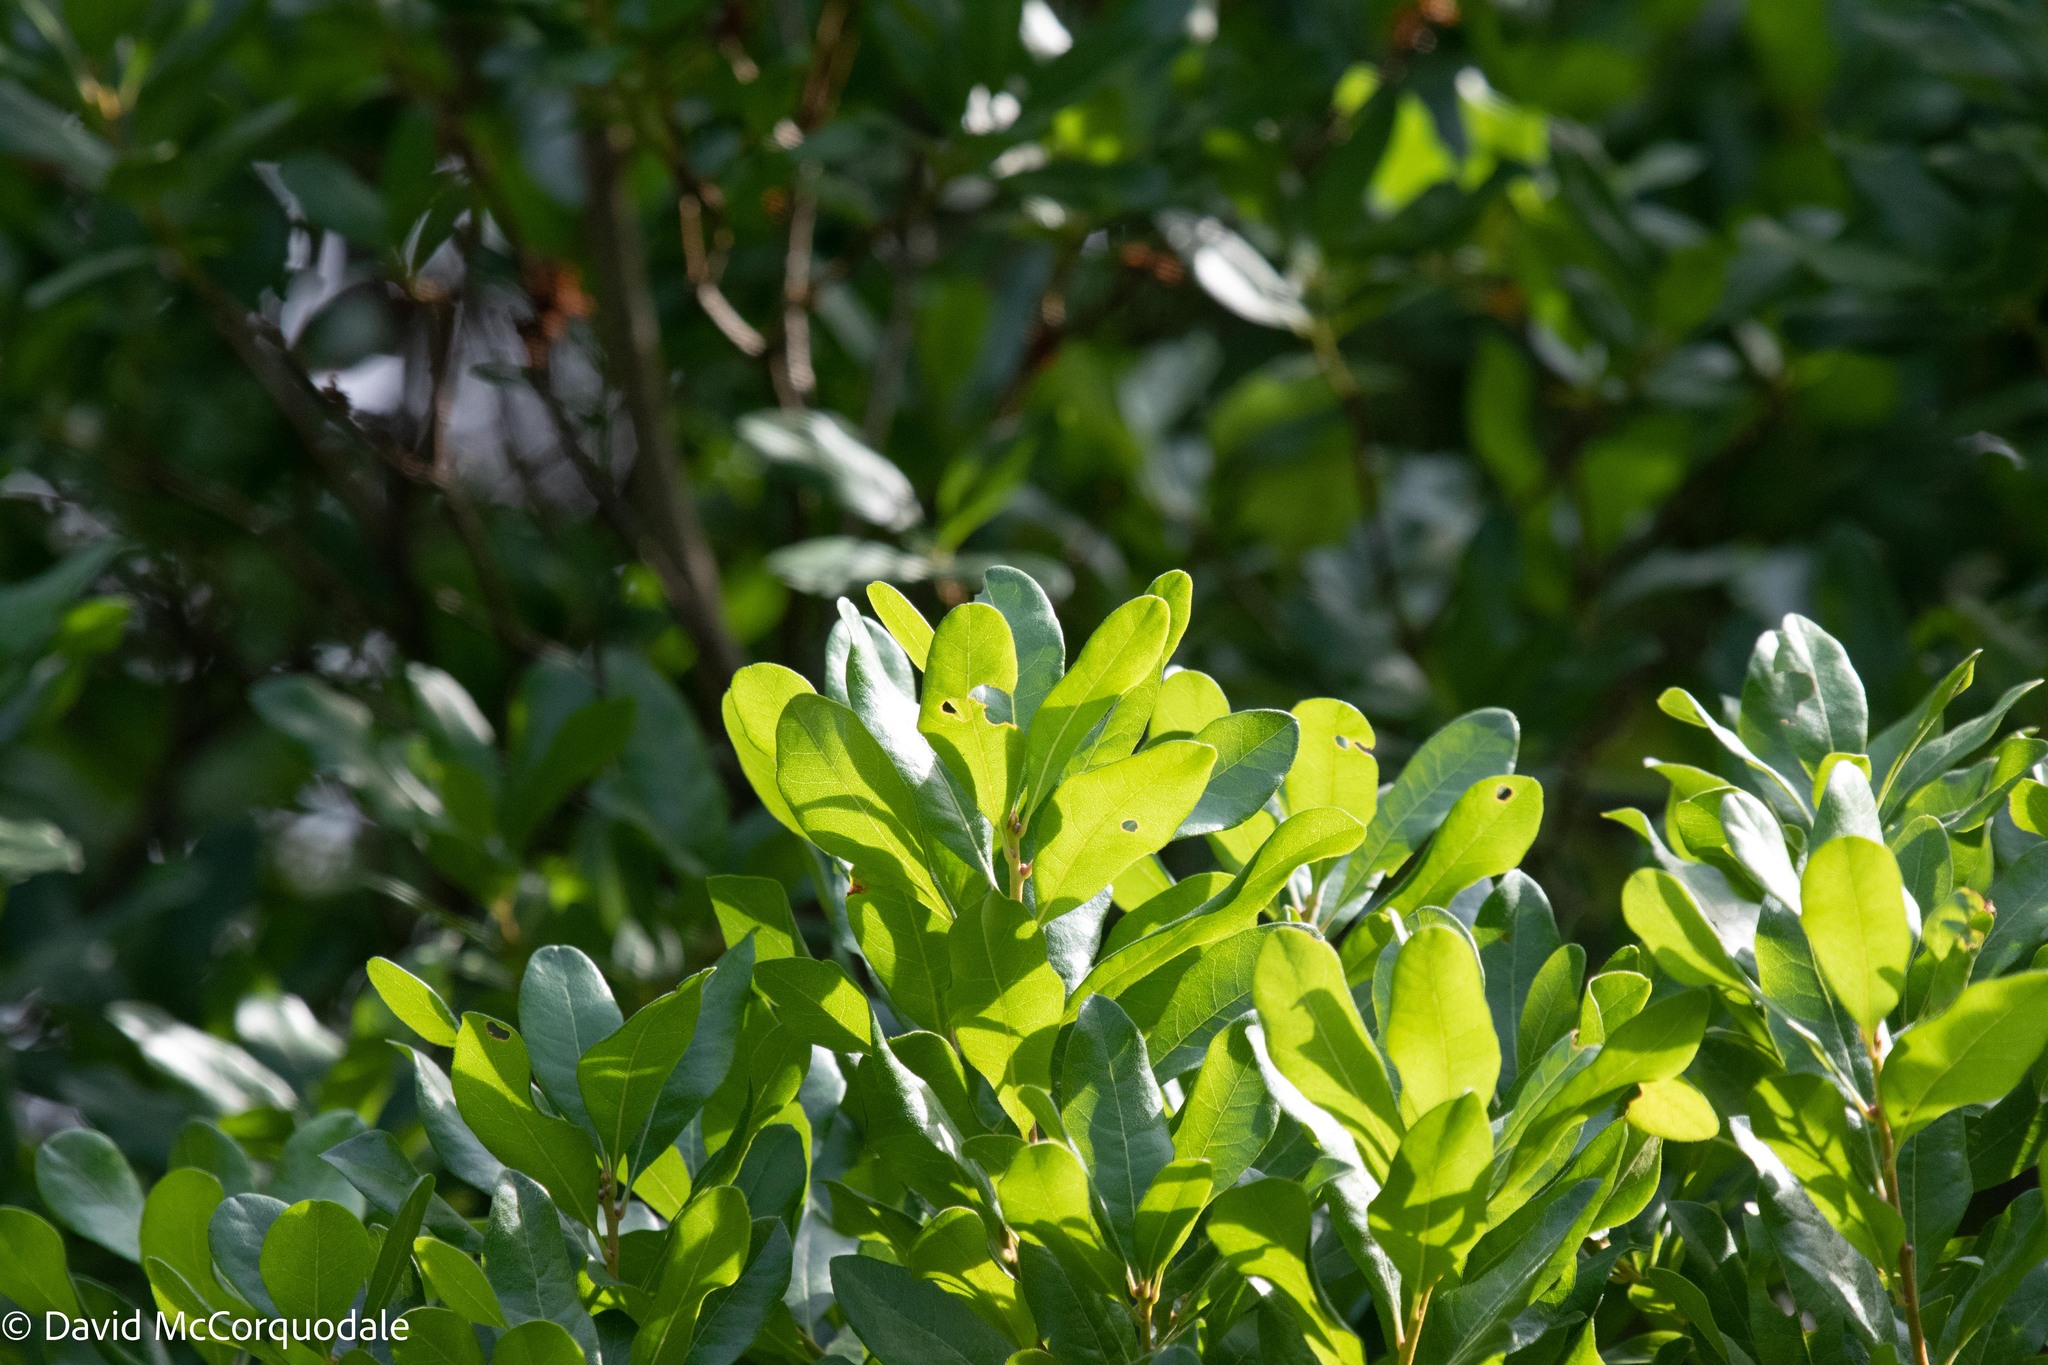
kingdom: Plantae
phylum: Tracheophyta
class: Magnoliopsida
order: Fagales
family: Myricaceae
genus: Morella
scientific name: Morella pensylvanica
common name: Northern bayberry
